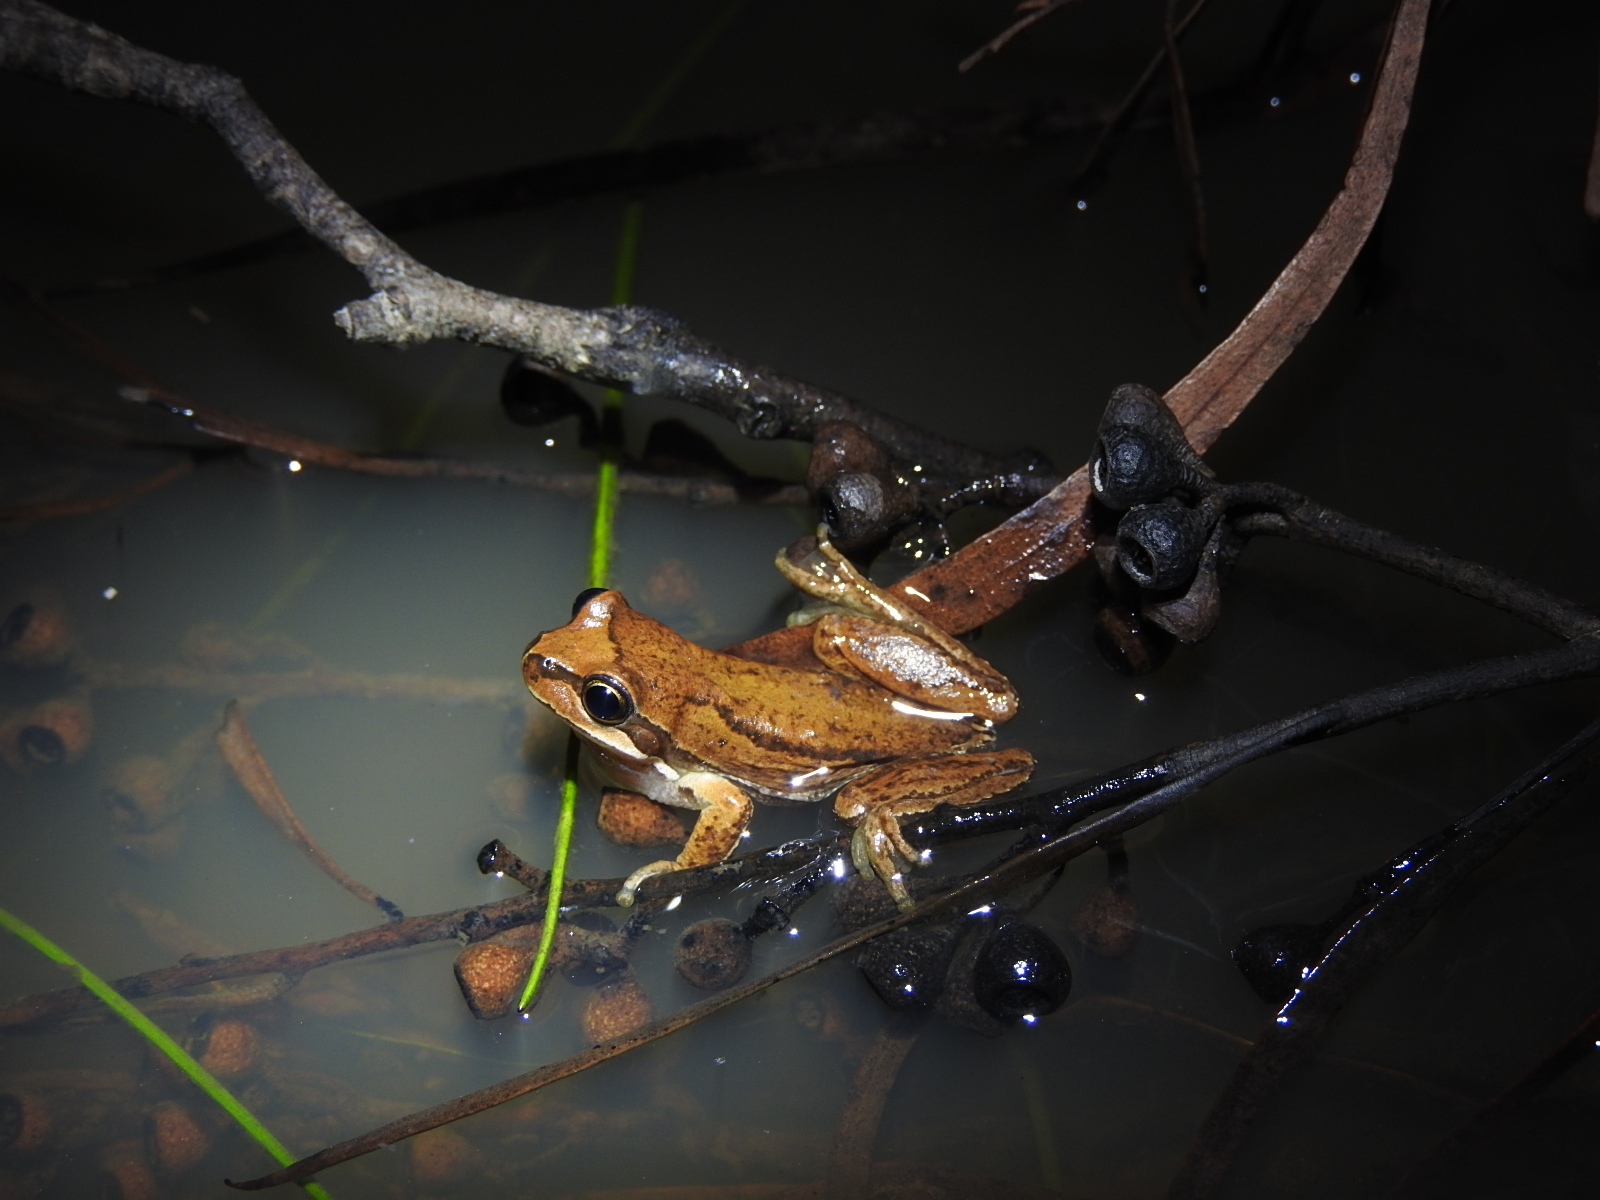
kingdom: Animalia
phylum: Chordata
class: Amphibia
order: Anura
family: Pelodryadidae
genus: Litoria
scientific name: Litoria ewingii
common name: Southern brown tree frog
